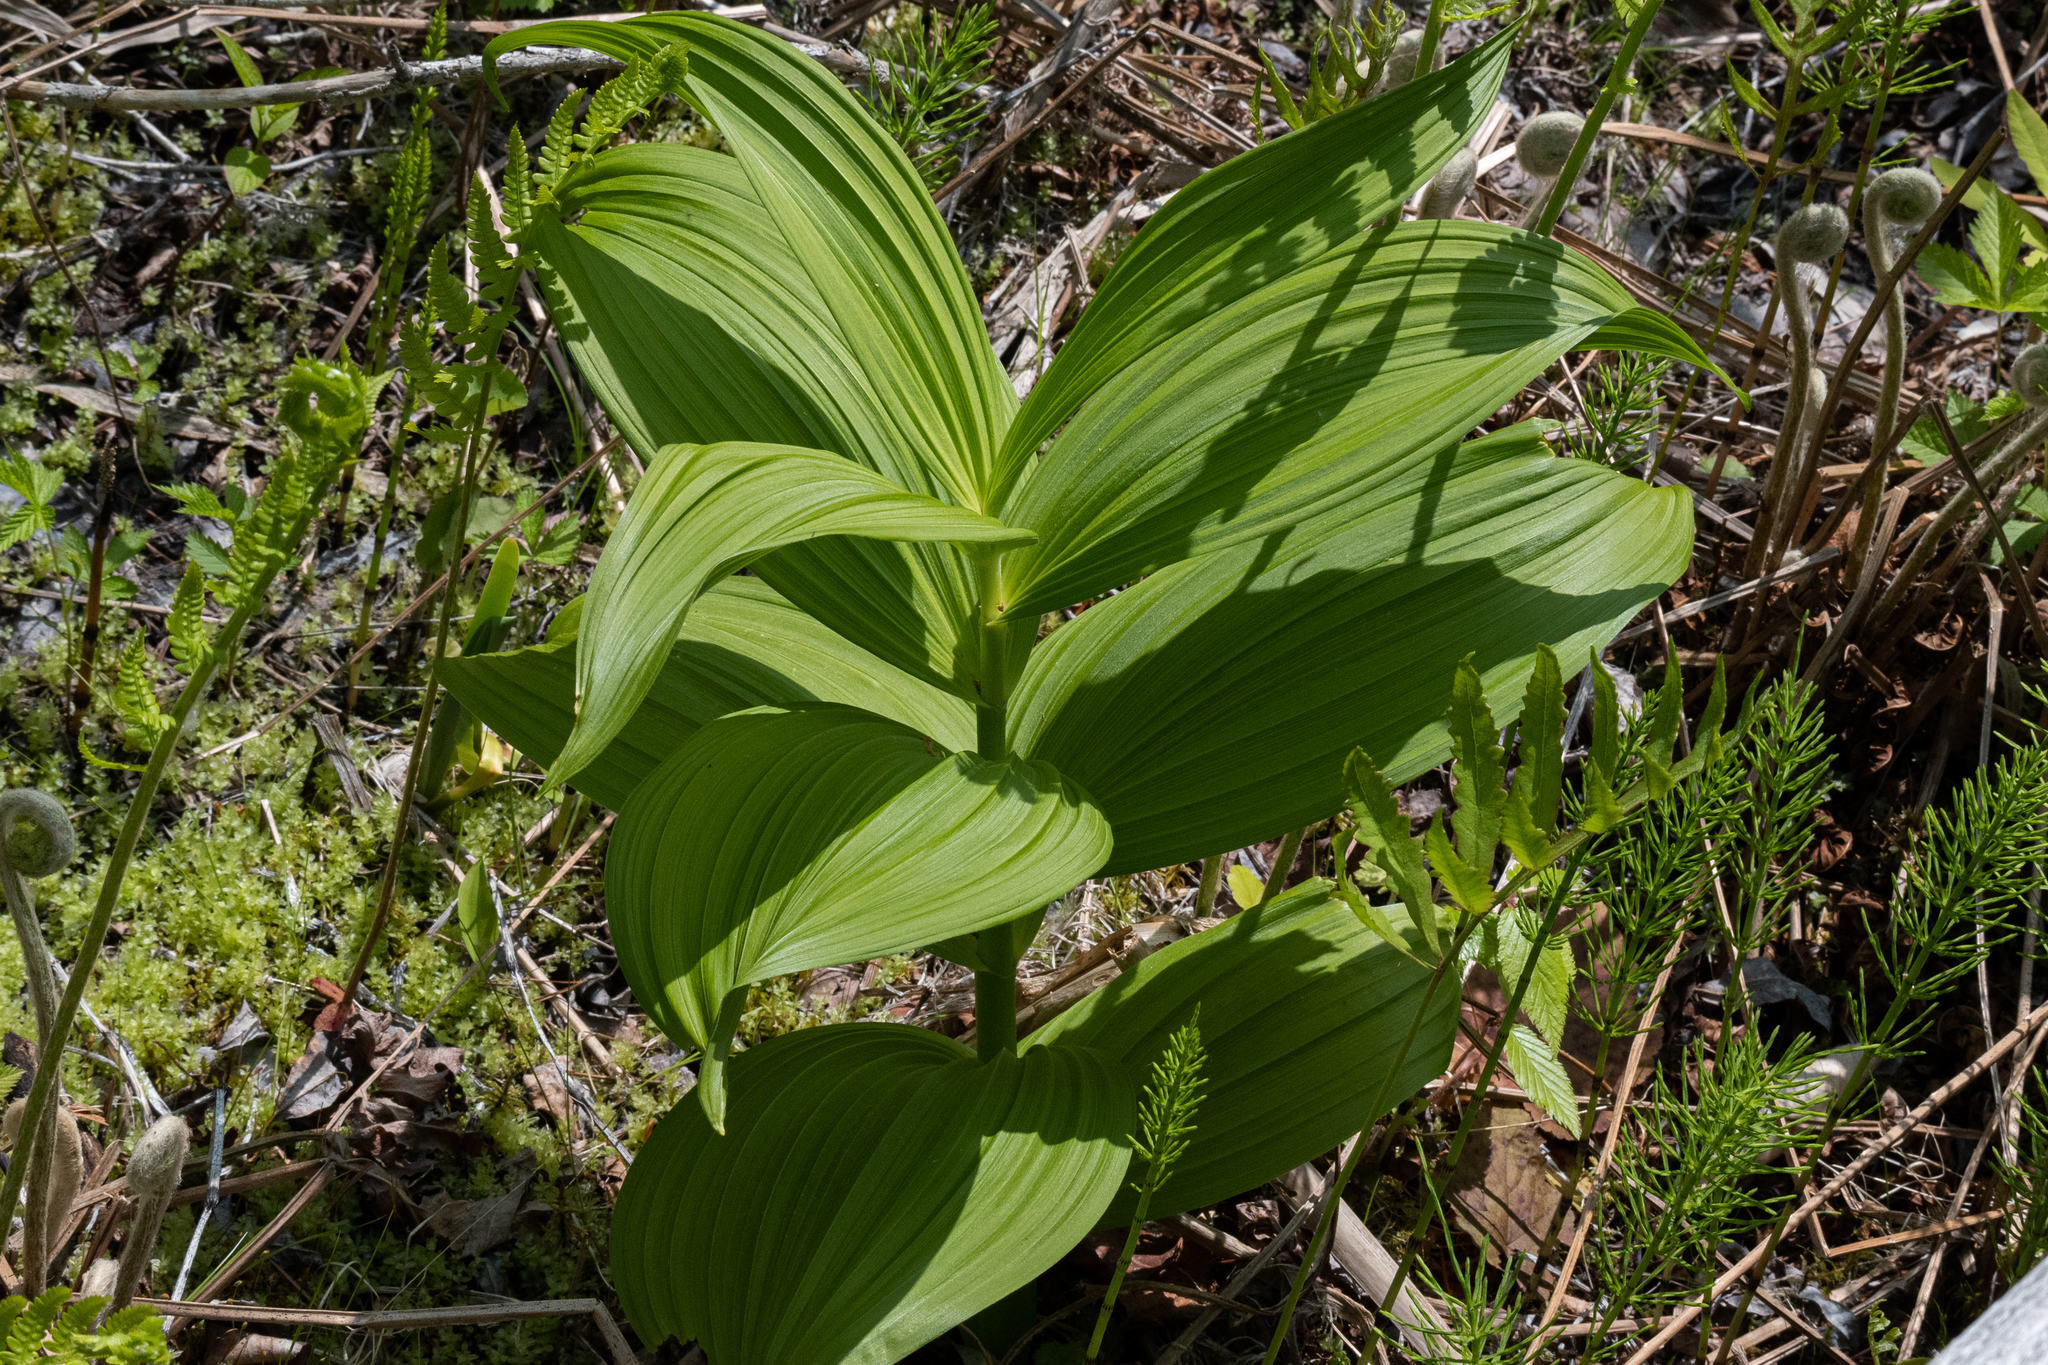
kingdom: Plantae
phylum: Tracheophyta
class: Liliopsida
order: Liliales
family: Melanthiaceae
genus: Veratrum
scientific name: Veratrum viride
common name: American false hellebore
